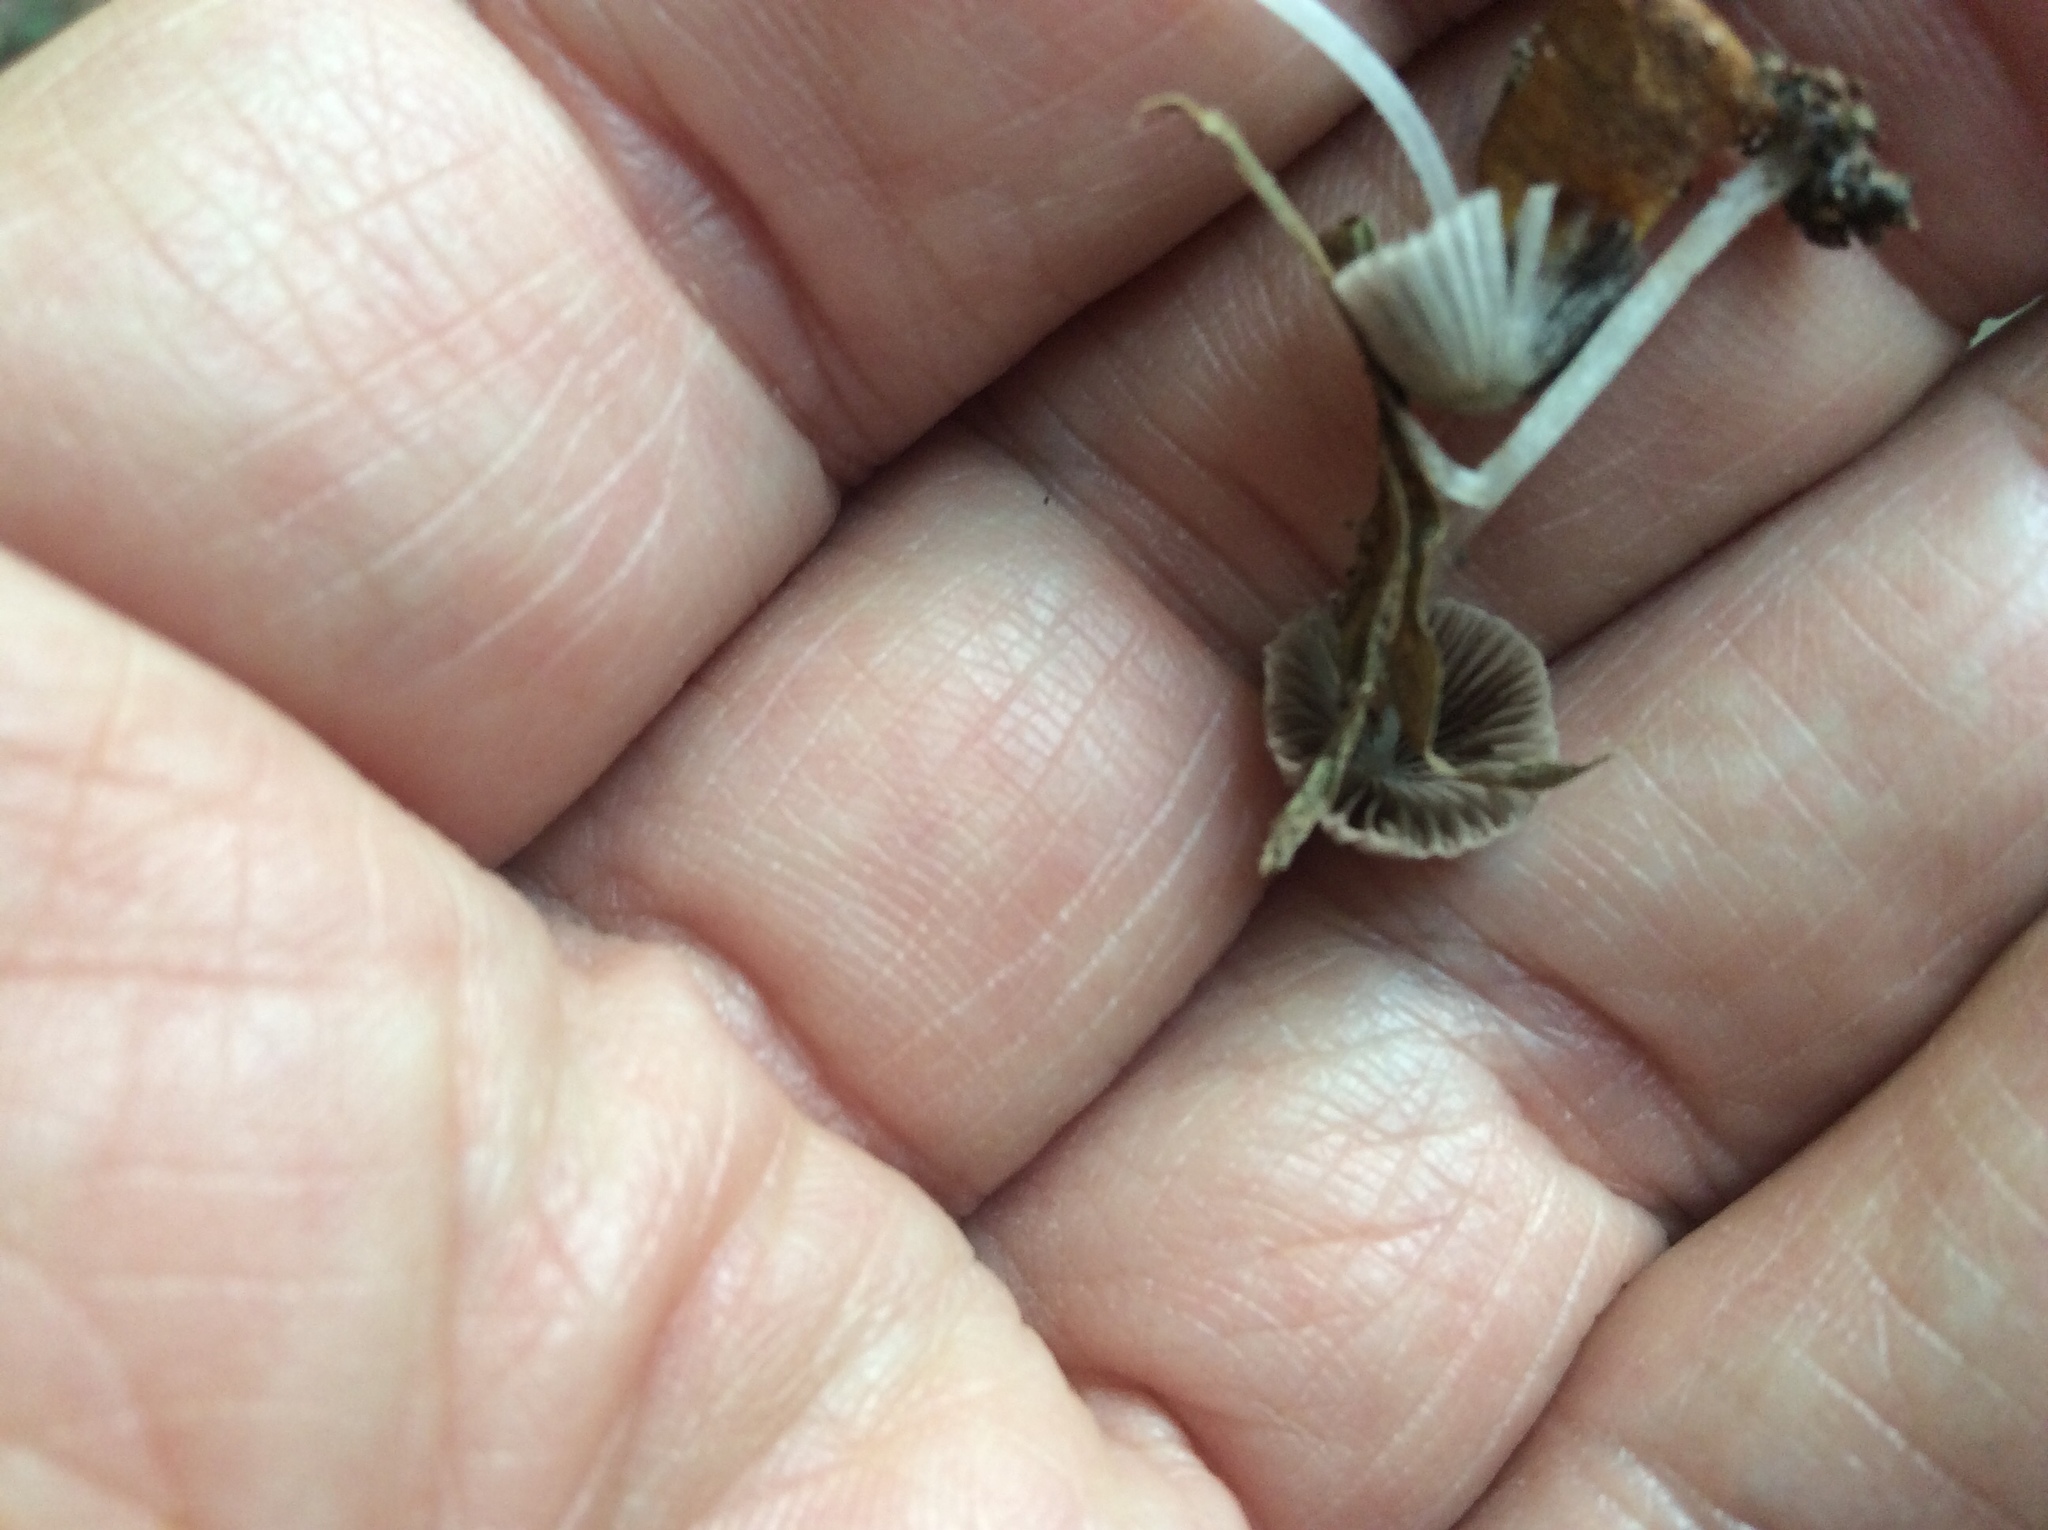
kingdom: Fungi
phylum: Basidiomycota
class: Agaricomycetes
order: Agaricales
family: Psathyrellaceae
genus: Coprinellus
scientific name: Coprinellus disseminatus
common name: Fairies' bonnets
